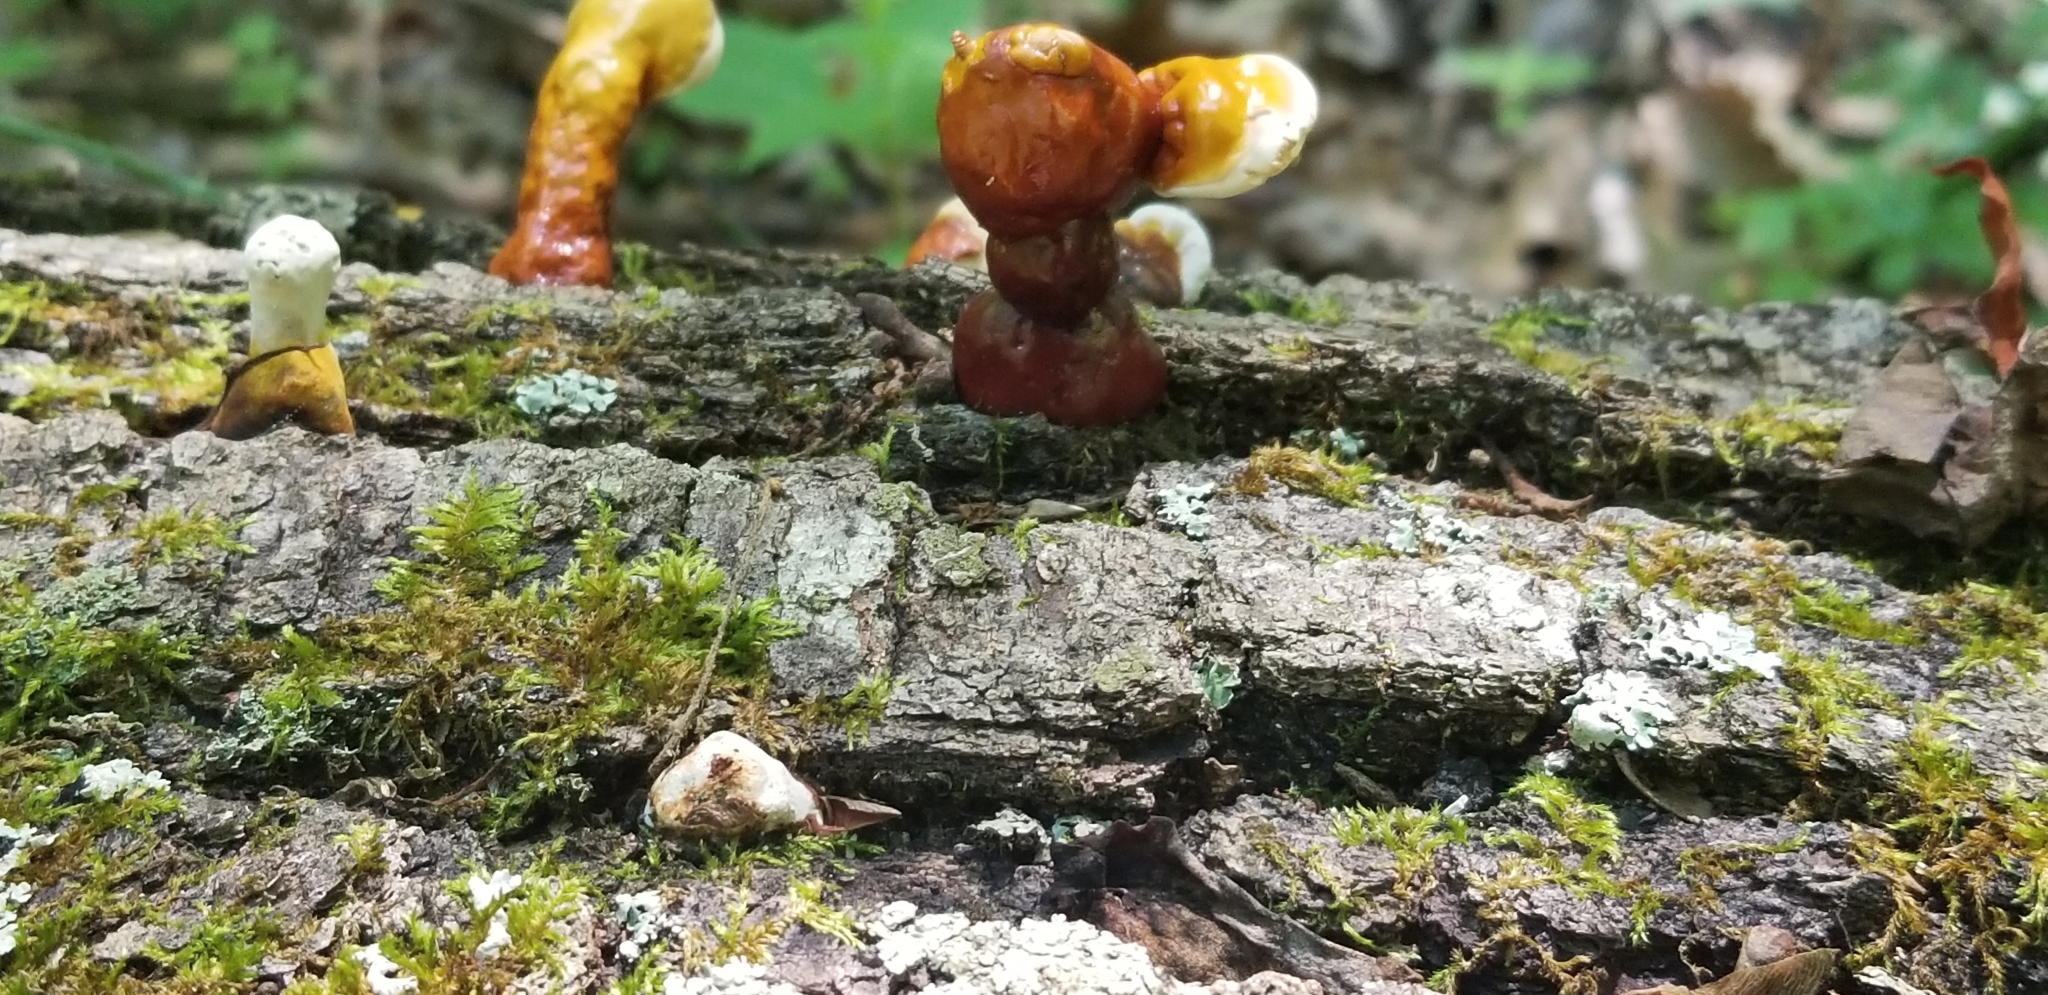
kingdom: Fungi
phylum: Basidiomycota
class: Agaricomycetes
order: Polyporales
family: Polyporaceae
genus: Ganoderma
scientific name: Ganoderma tsugae
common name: Hemlock varnish shelf
